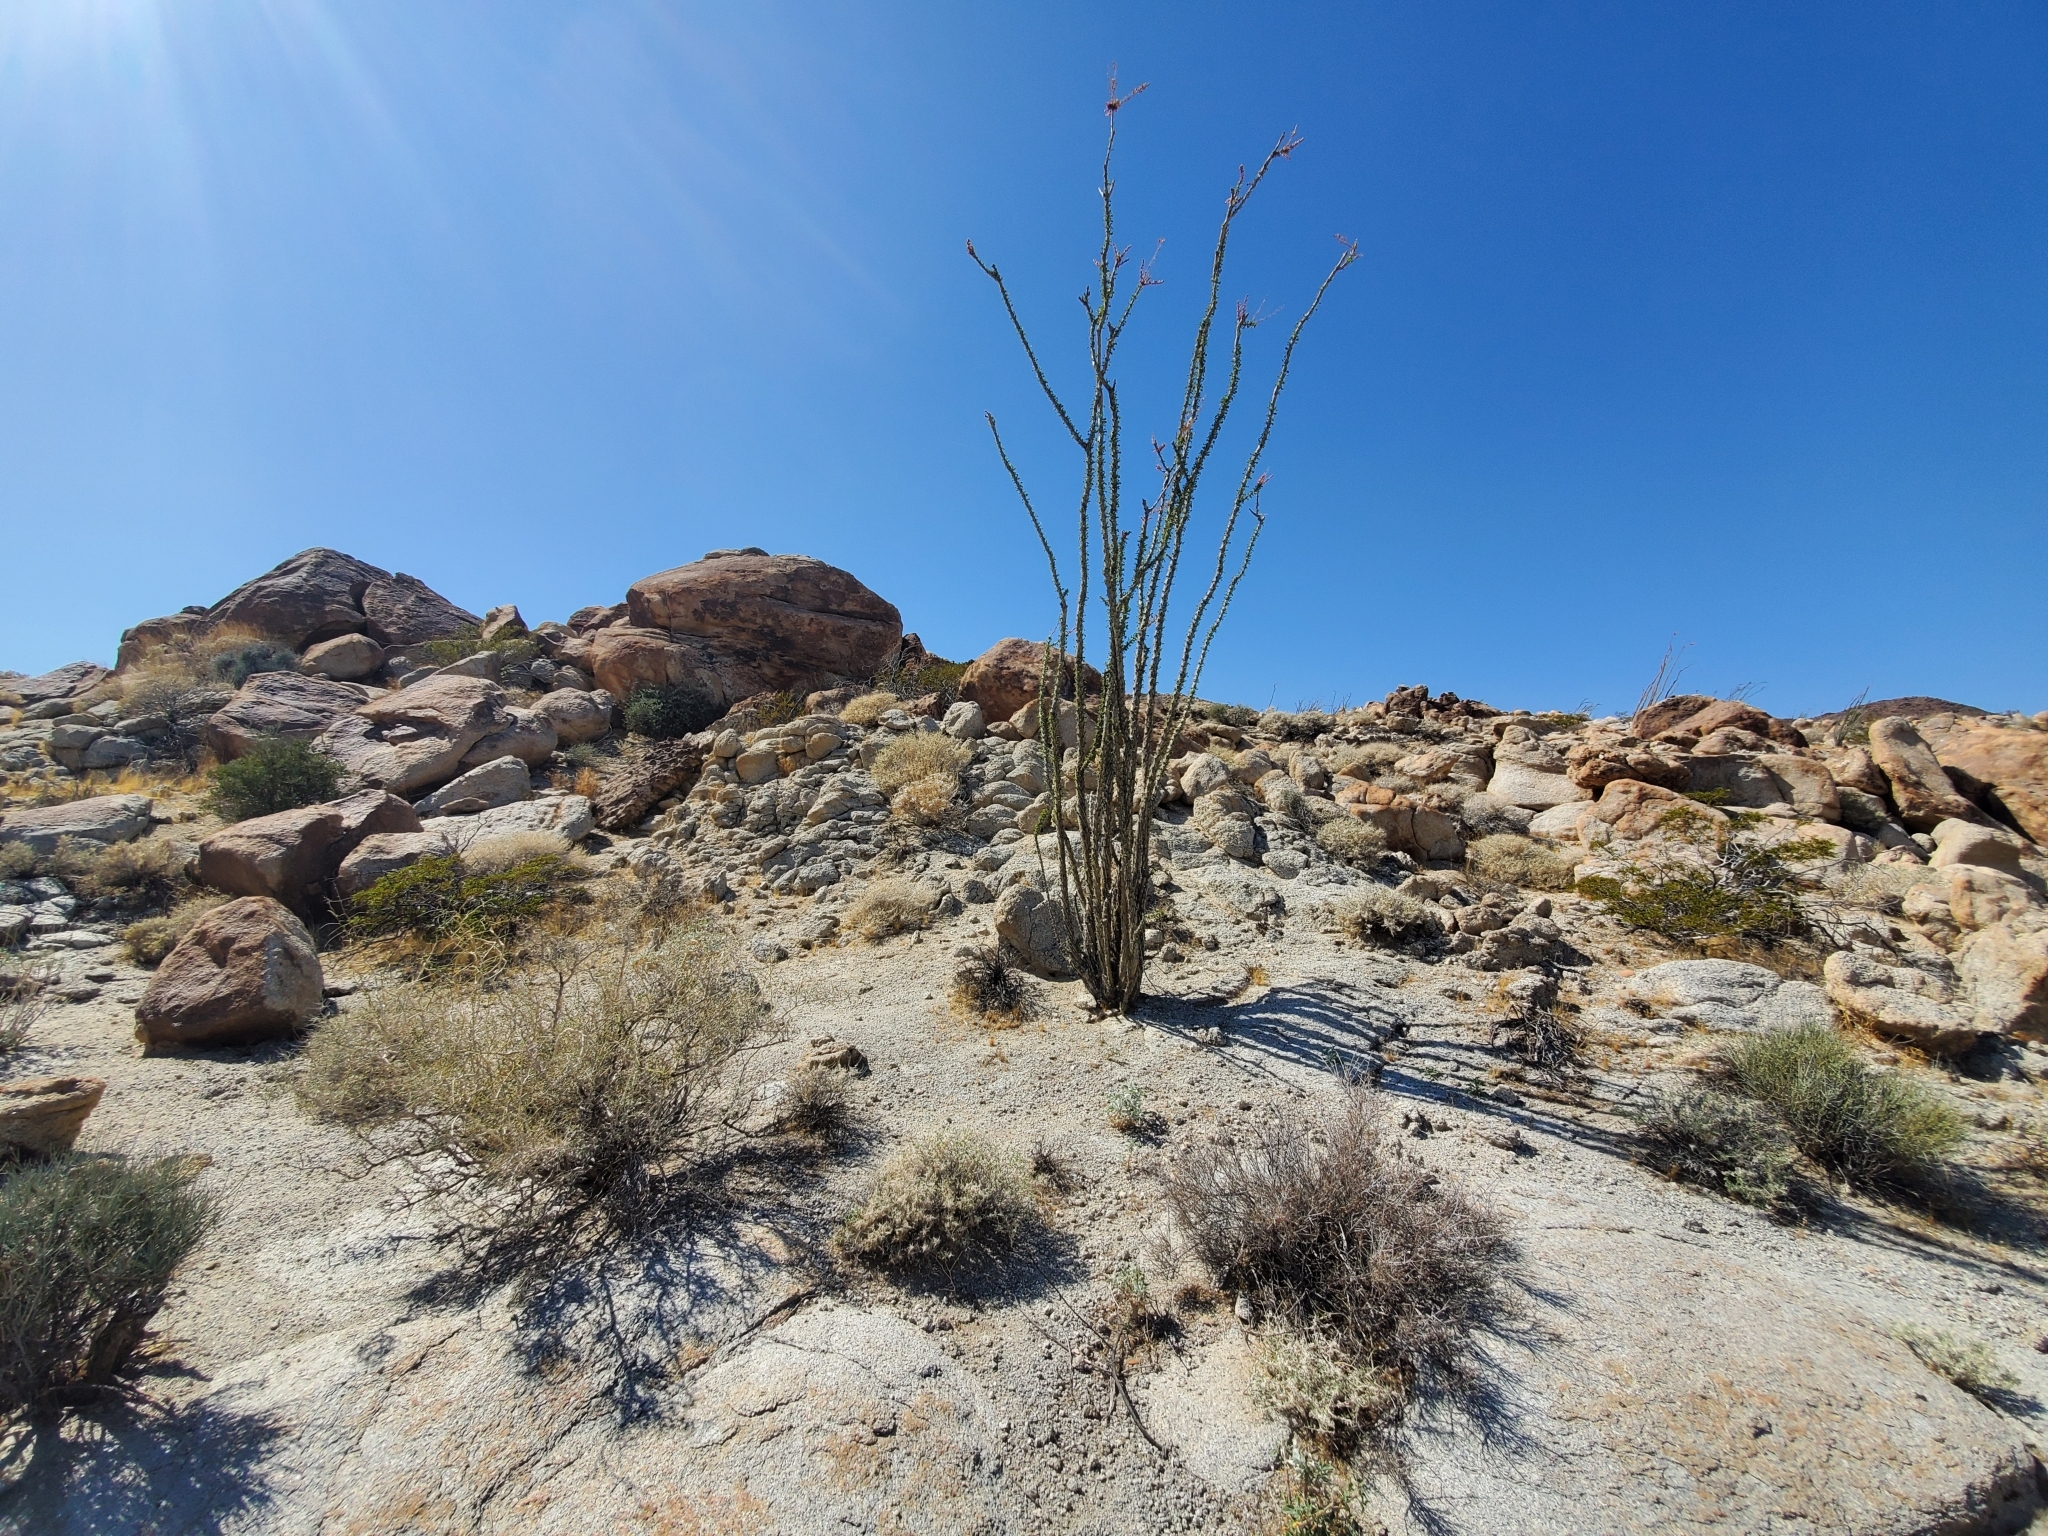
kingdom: Plantae
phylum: Tracheophyta
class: Magnoliopsida
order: Ericales
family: Fouquieriaceae
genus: Fouquieria
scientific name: Fouquieria splendens
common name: Vine-cactus
